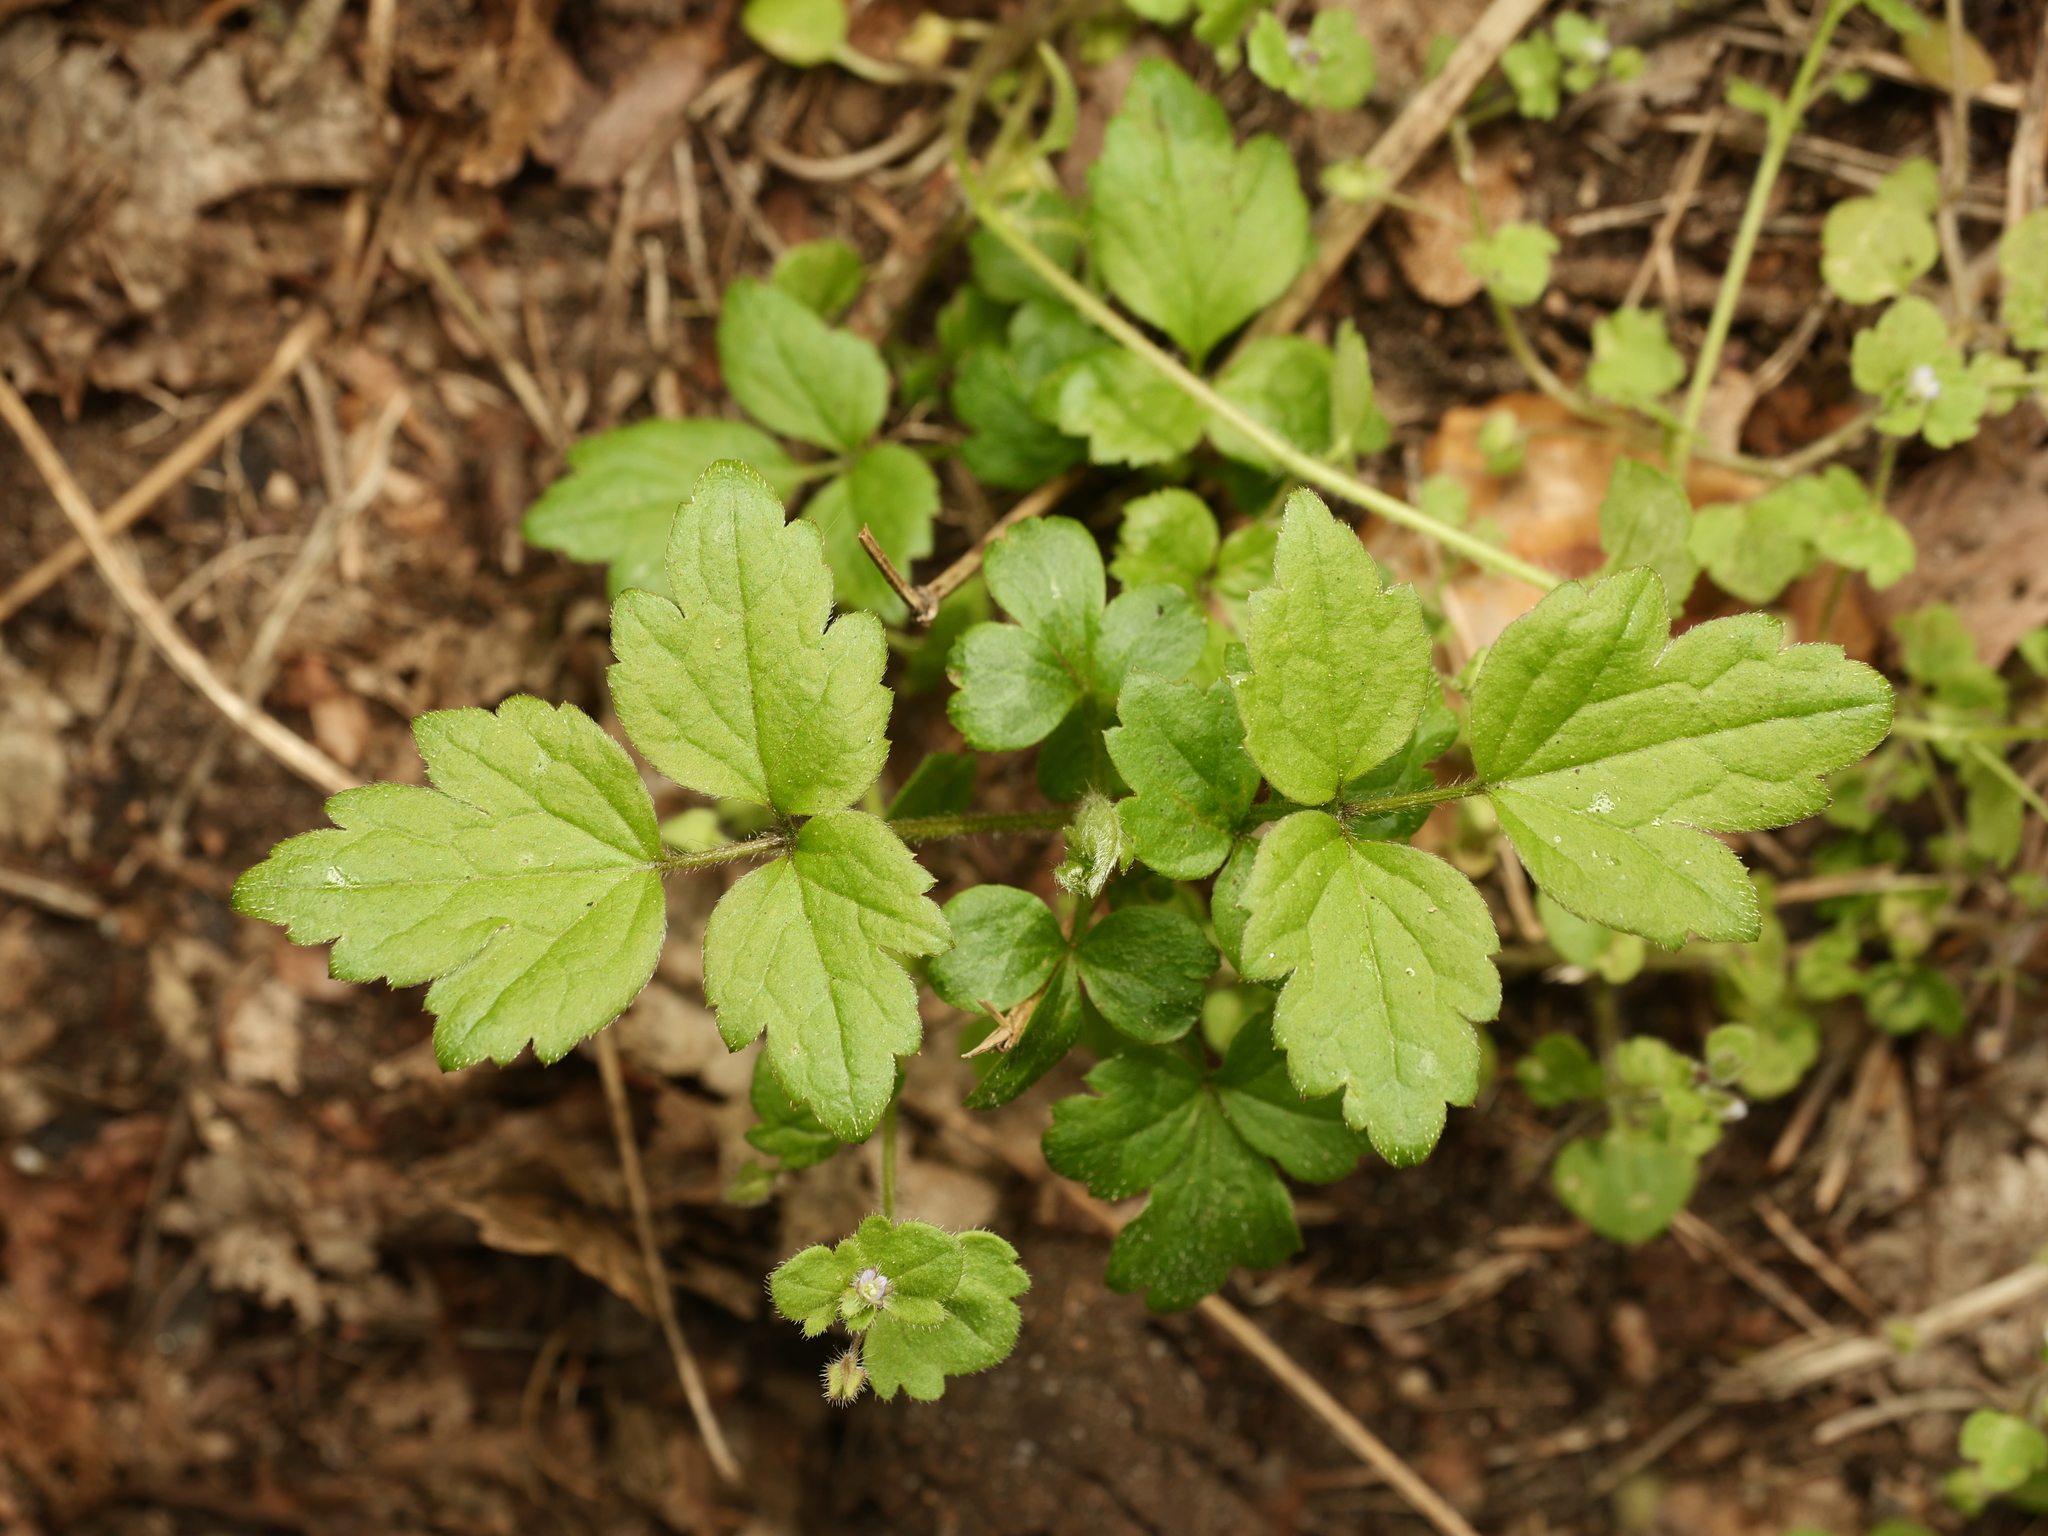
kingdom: Plantae
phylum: Tracheophyta
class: Magnoliopsida
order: Ranunculales
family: Ranunculaceae
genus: Clematis
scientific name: Clematis vitalba
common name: Evergreen clematis
